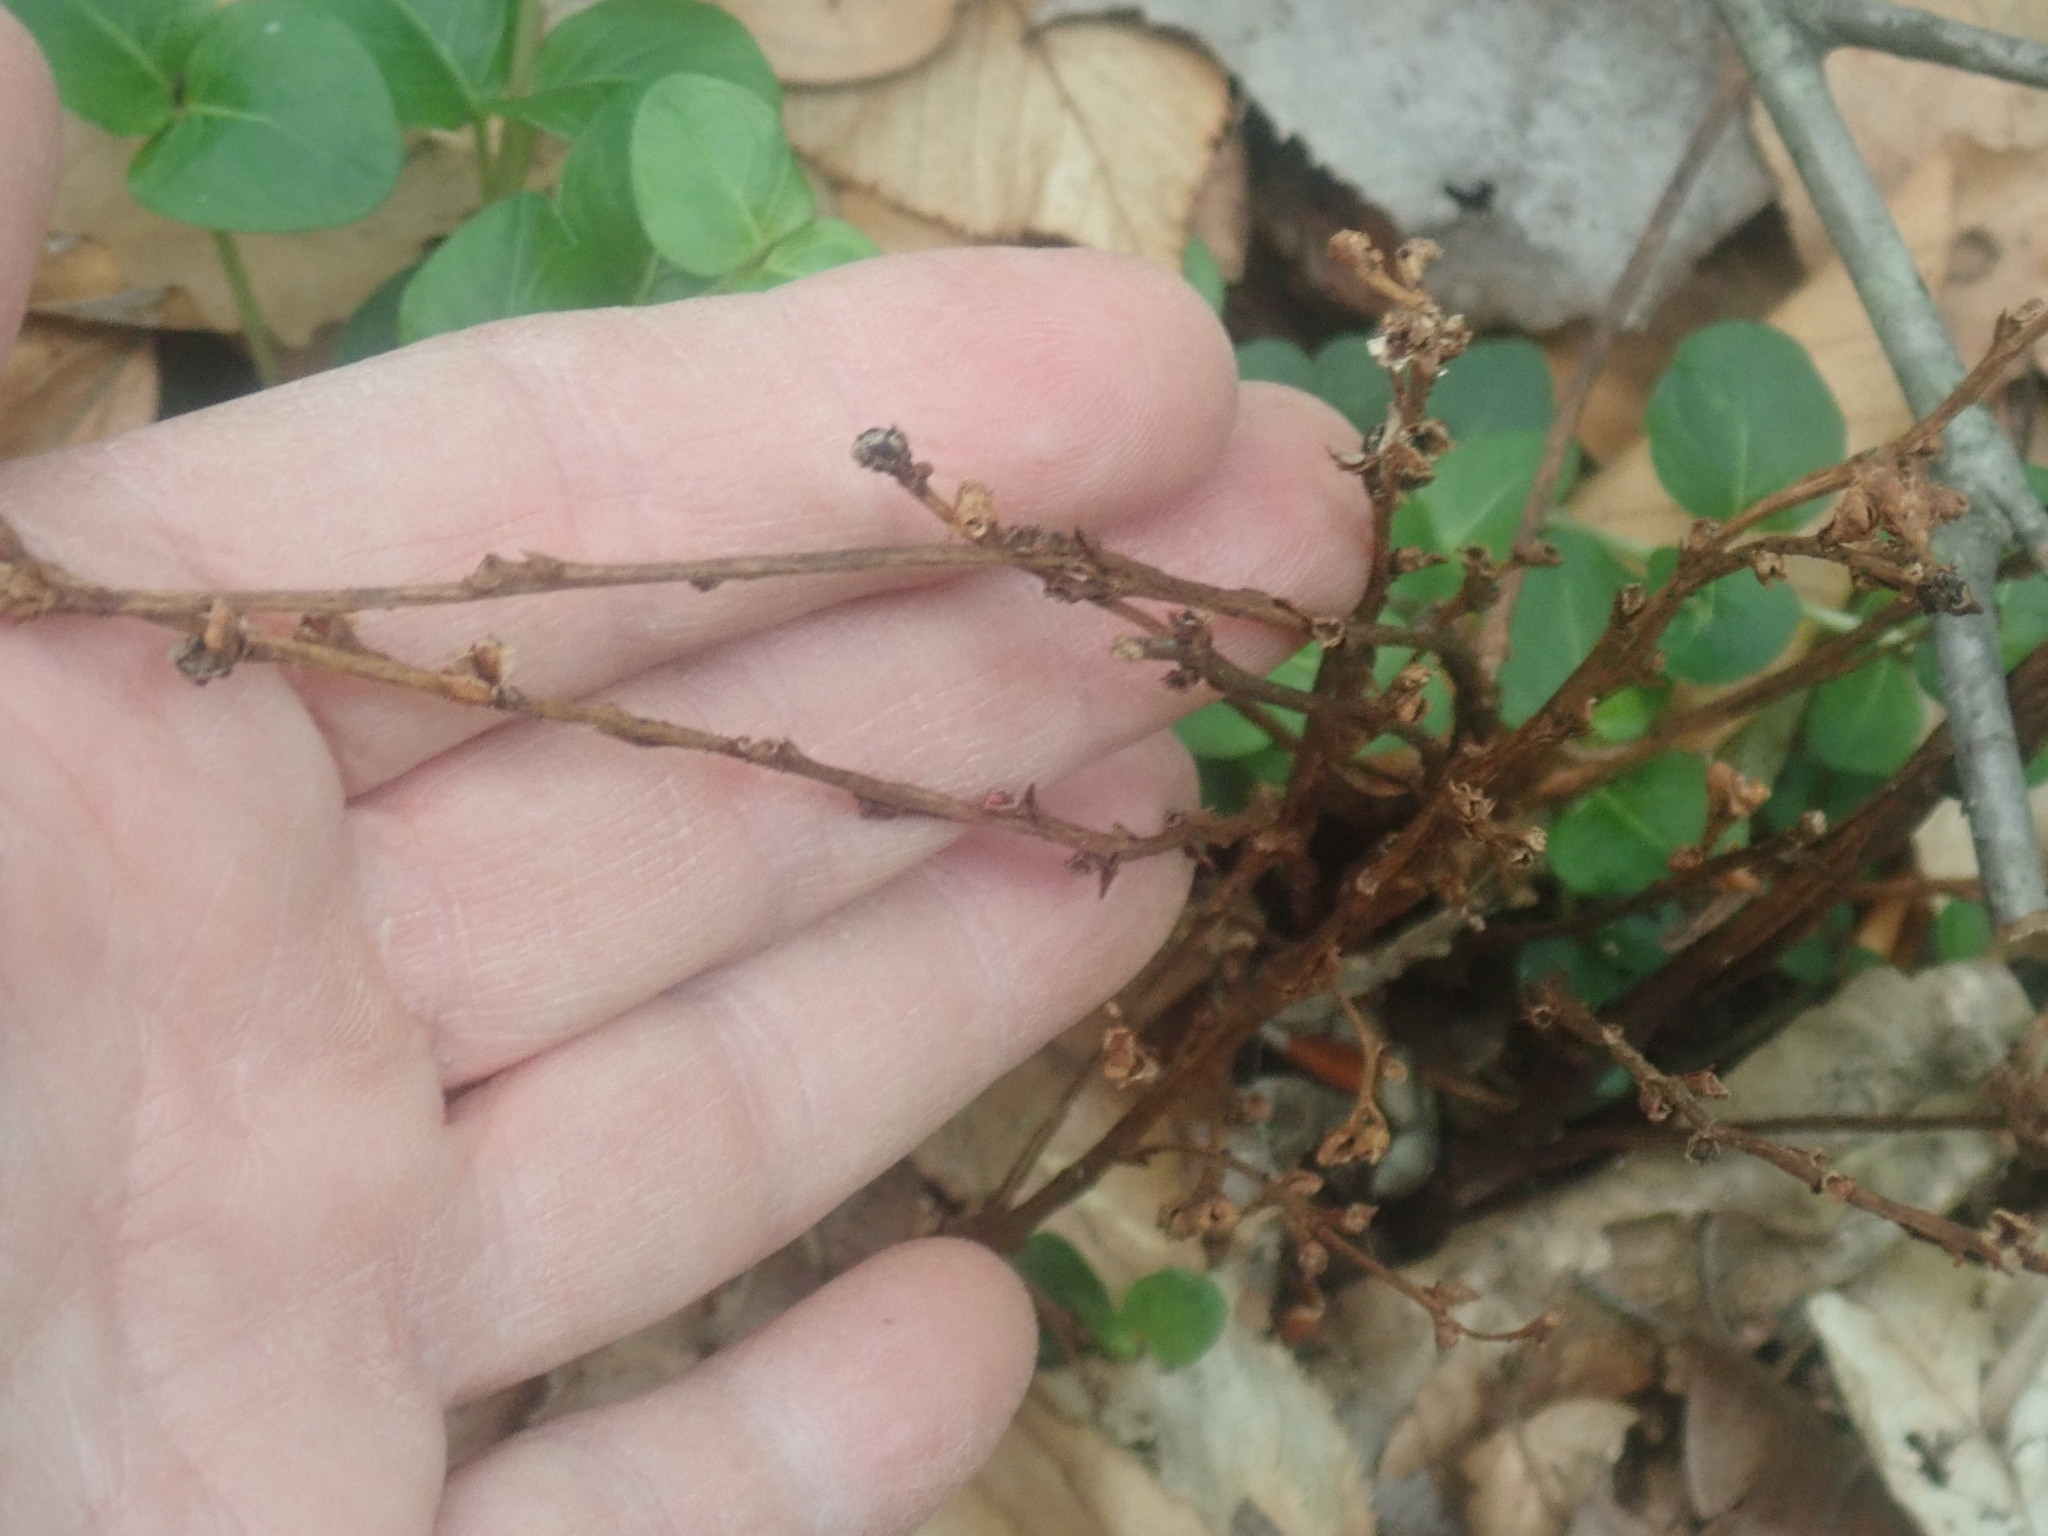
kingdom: Plantae
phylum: Tracheophyta
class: Magnoliopsida
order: Lamiales
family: Orobanchaceae
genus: Epifagus
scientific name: Epifagus virginiana
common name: Beechdrops
